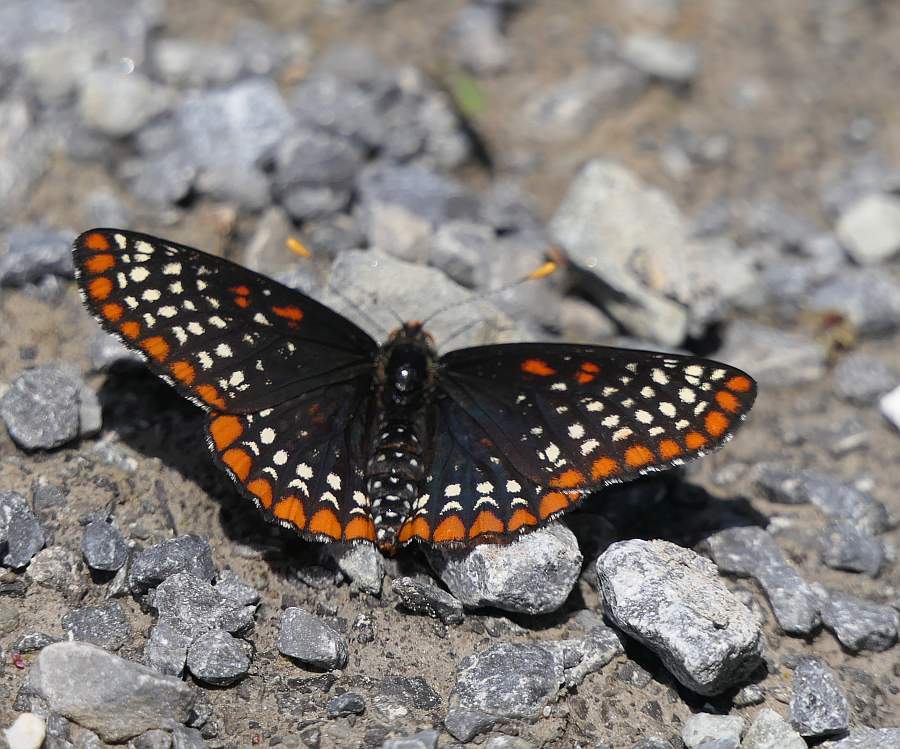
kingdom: Animalia
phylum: Arthropoda
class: Insecta
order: Lepidoptera
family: Nymphalidae
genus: Euphydryas
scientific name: Euphydryas phaeton
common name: Baltimore checkerspot
